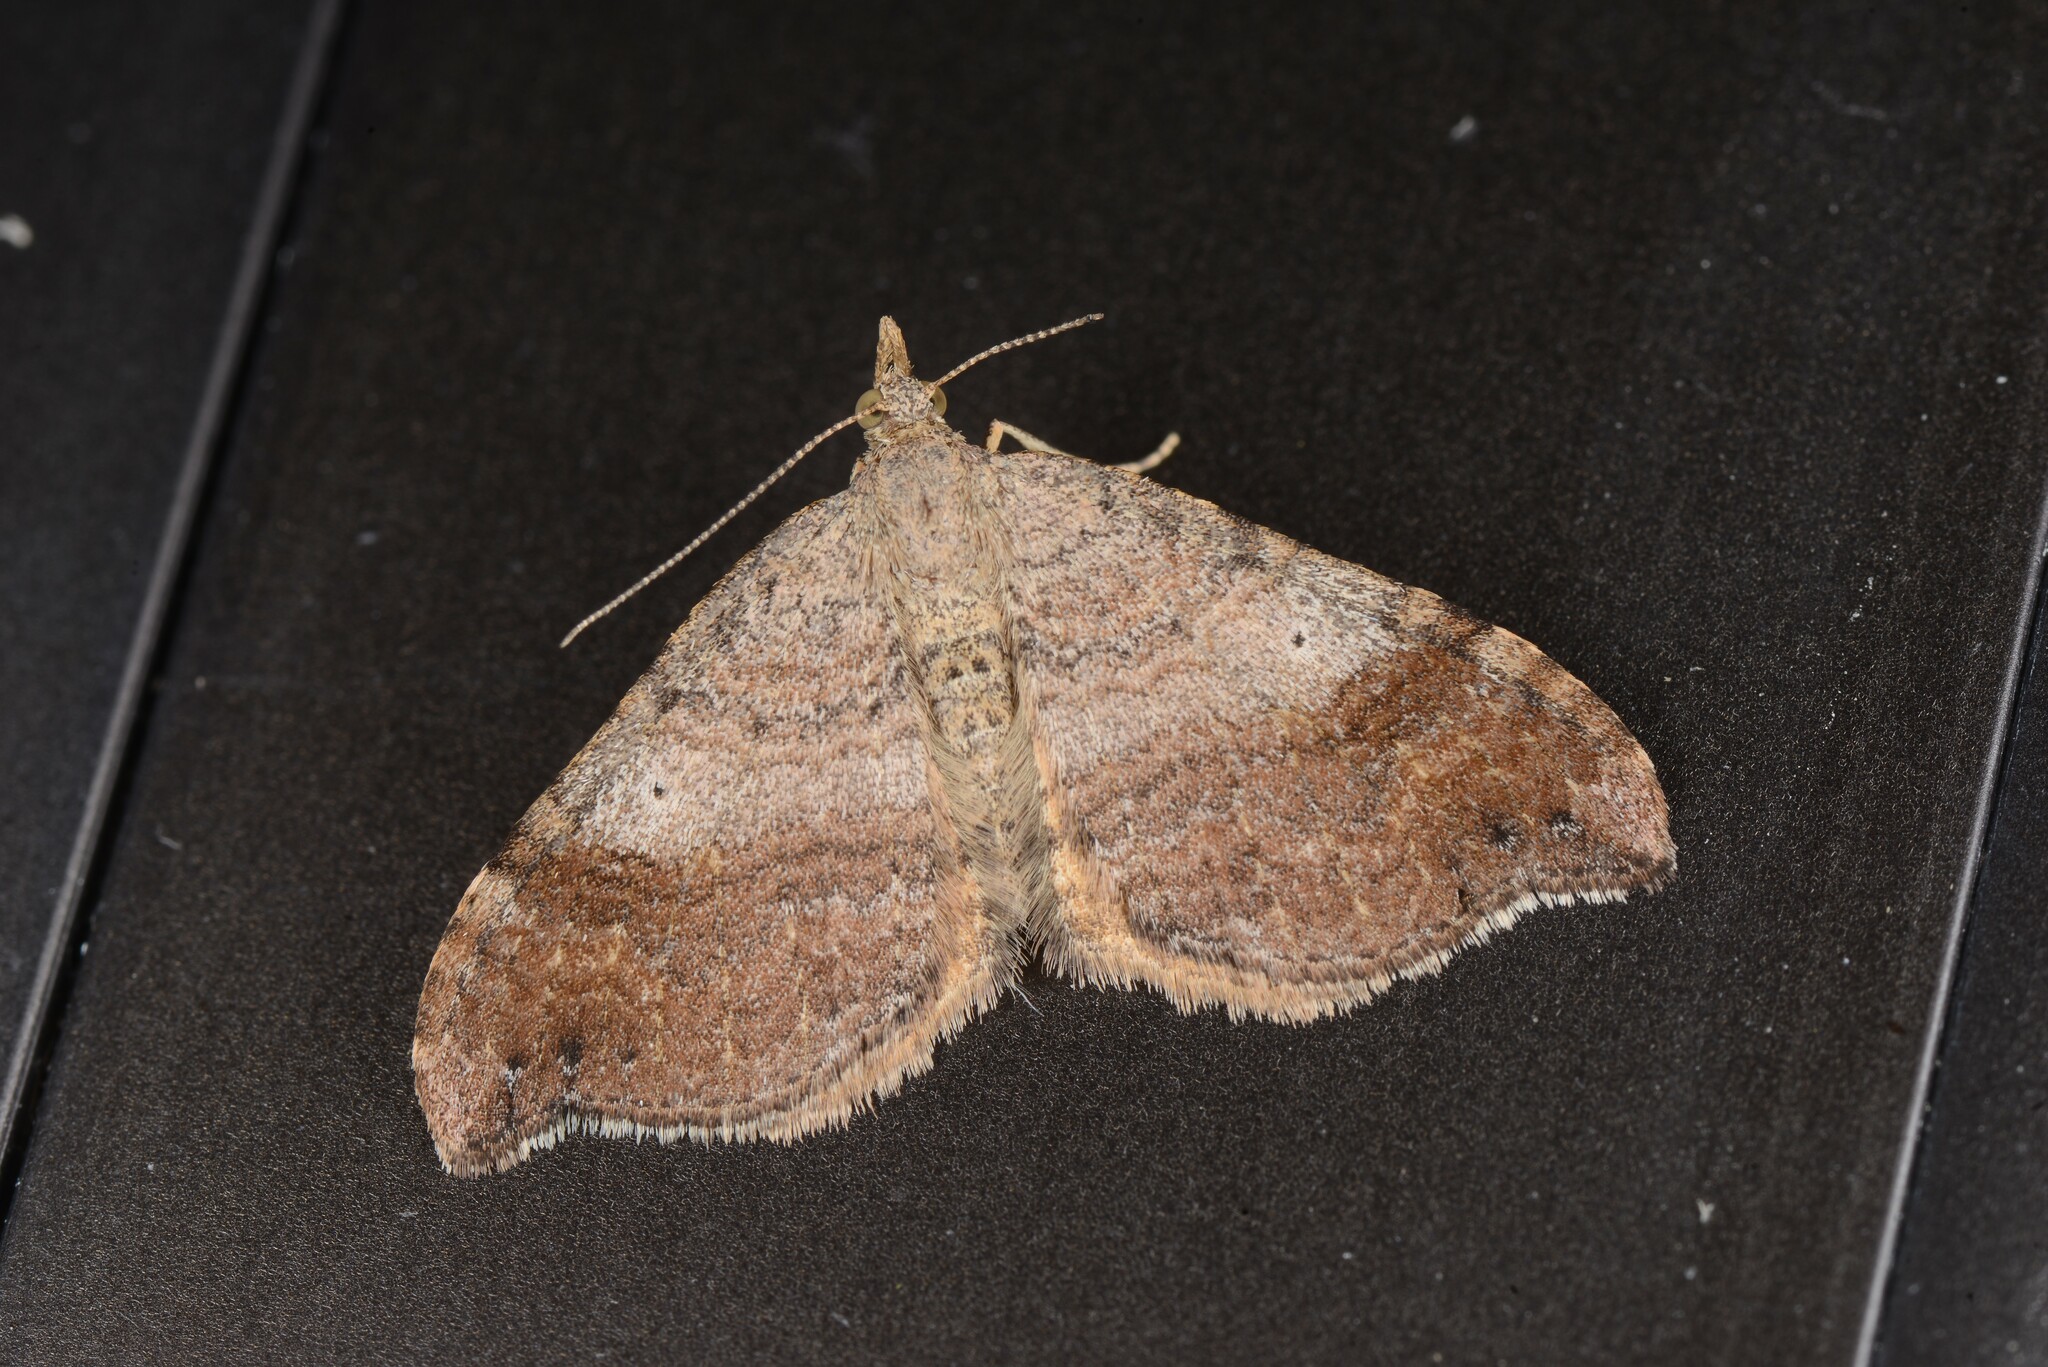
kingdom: Animalia
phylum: Arthropoda
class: Insecta
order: Lepidoptera
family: Geometridae
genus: Homodotis
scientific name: Homodotis megaspilata
